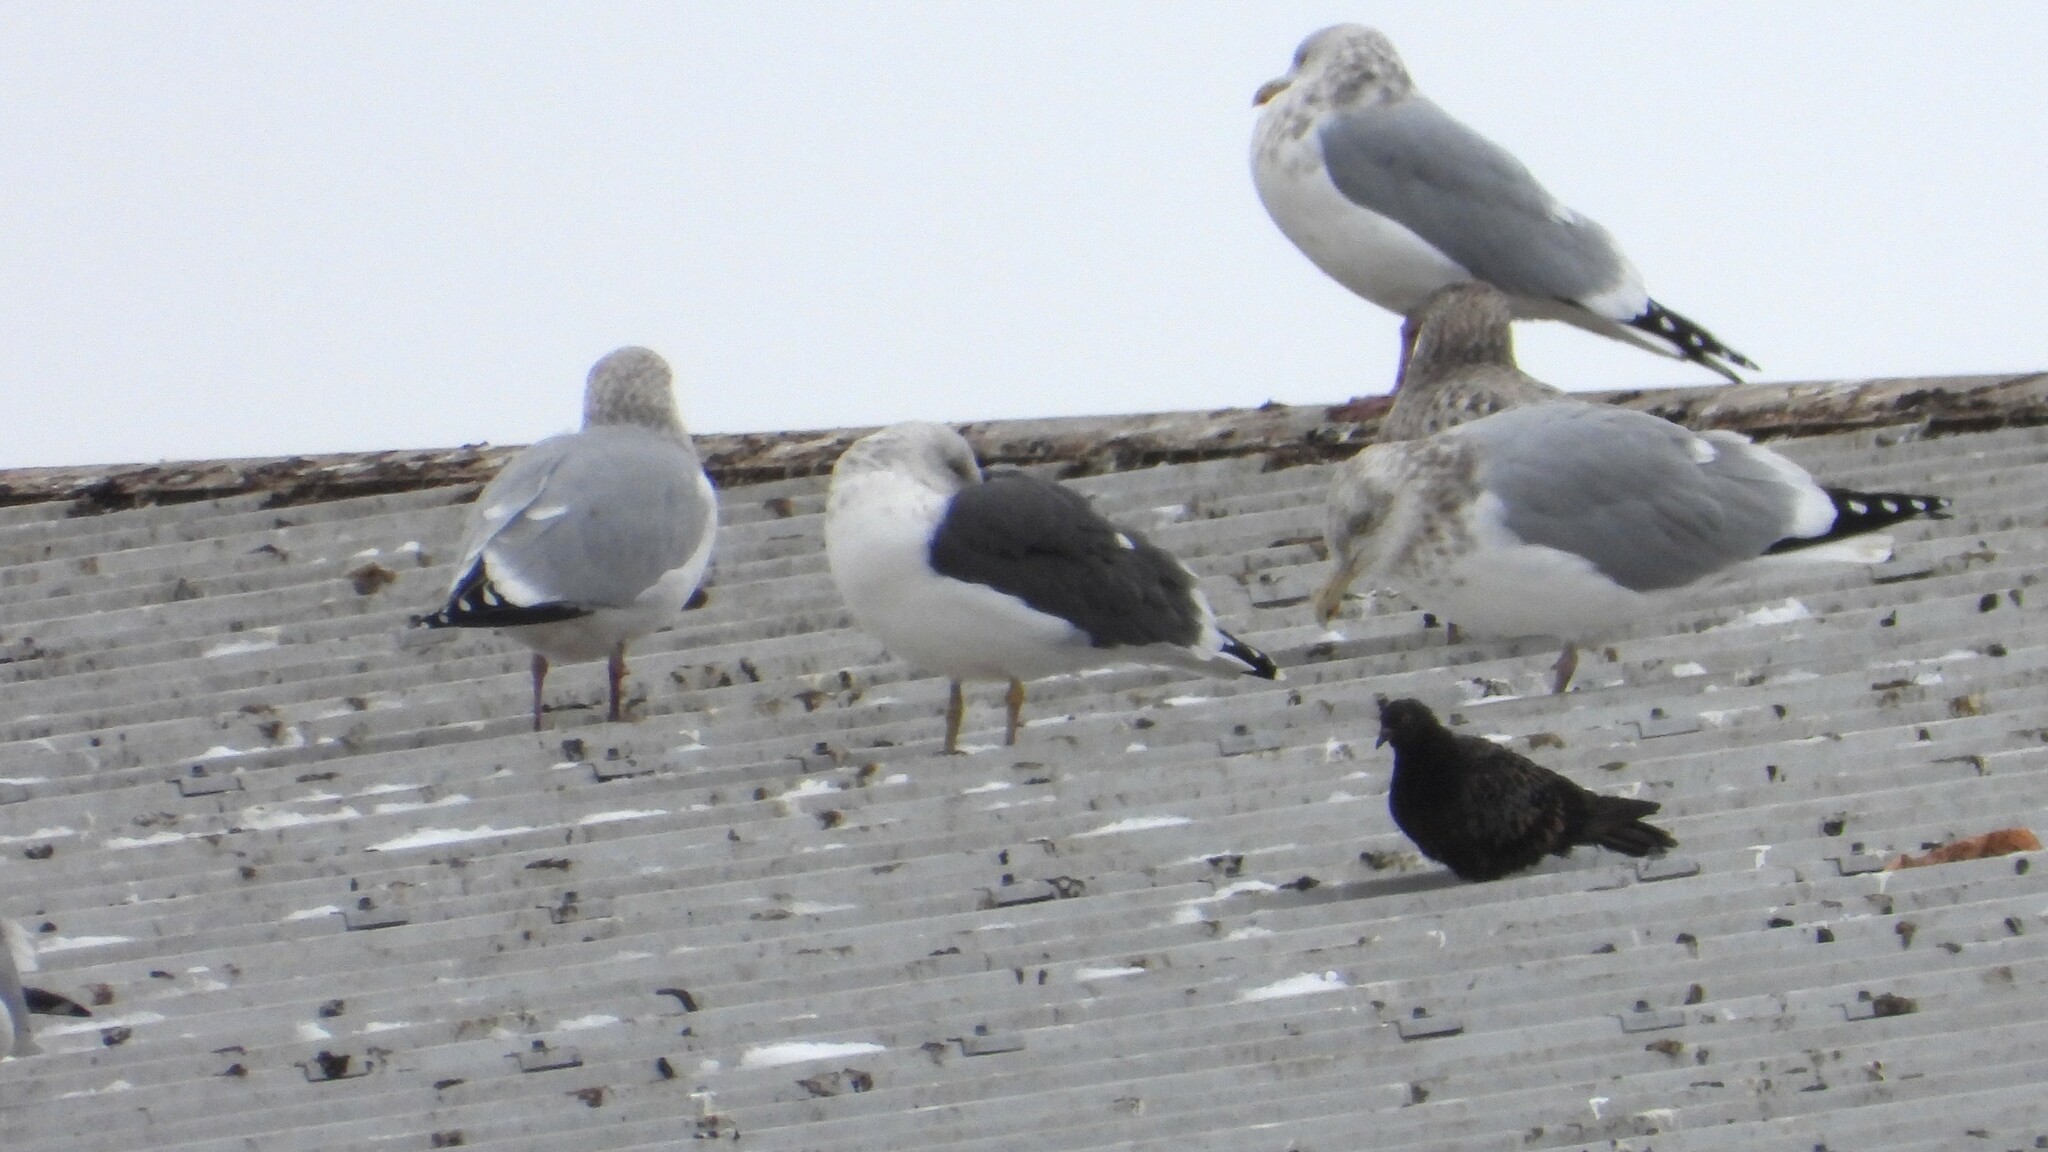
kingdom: Animalia
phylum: Chordata
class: Aves
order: Charadriiformes
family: Laridae
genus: Larus
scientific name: Larus fuscus
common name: Lesser black-backed gull
